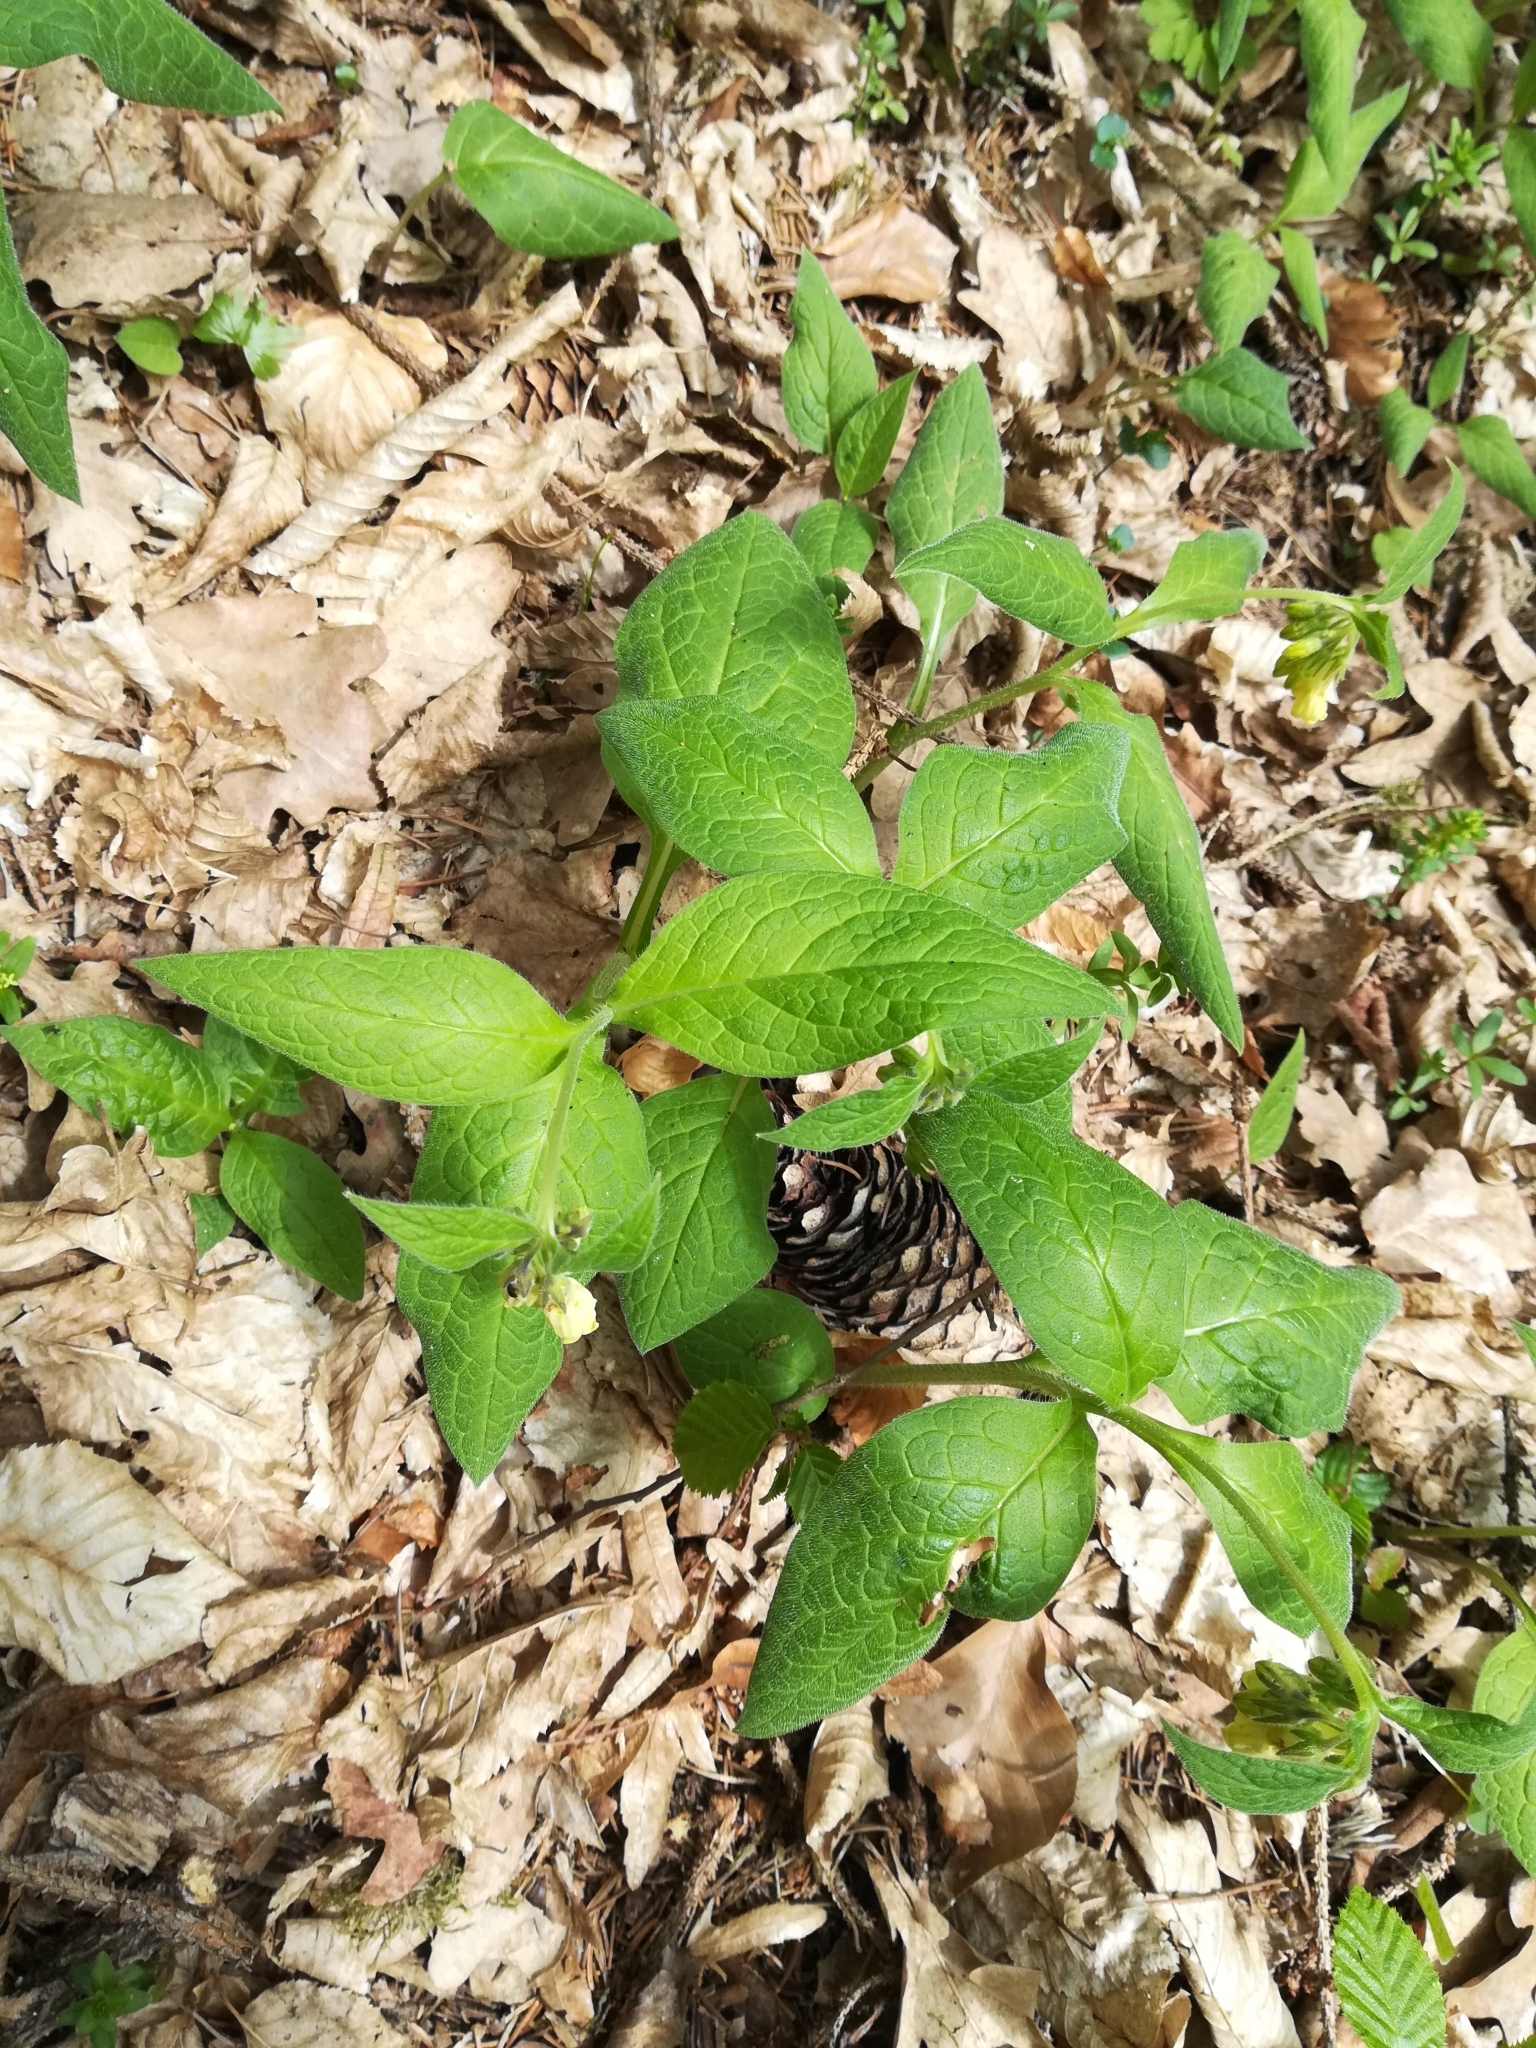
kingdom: Plantae
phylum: Tracheophyta
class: Magnoliopsida
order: Boraginales
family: Boraginaceae
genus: Symphytum
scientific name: Symphytum tuberosum
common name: Tuberous comfrey
